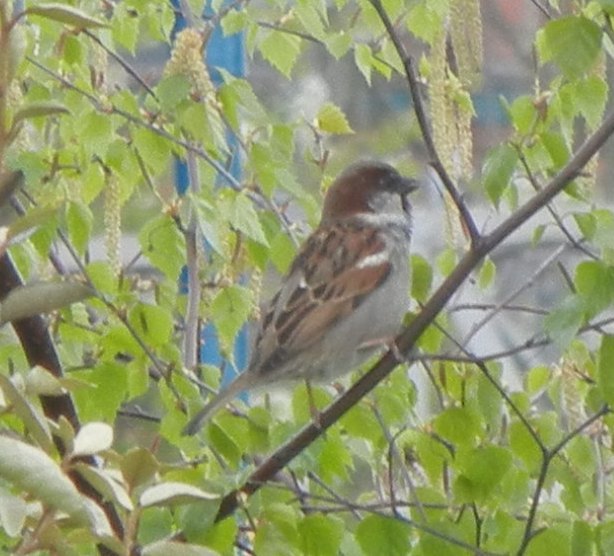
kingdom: Animalia
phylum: Chordata
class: Aves
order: Passeriformes
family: Passeridae
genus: Passer
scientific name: Passer domesticus
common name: House sparrow
